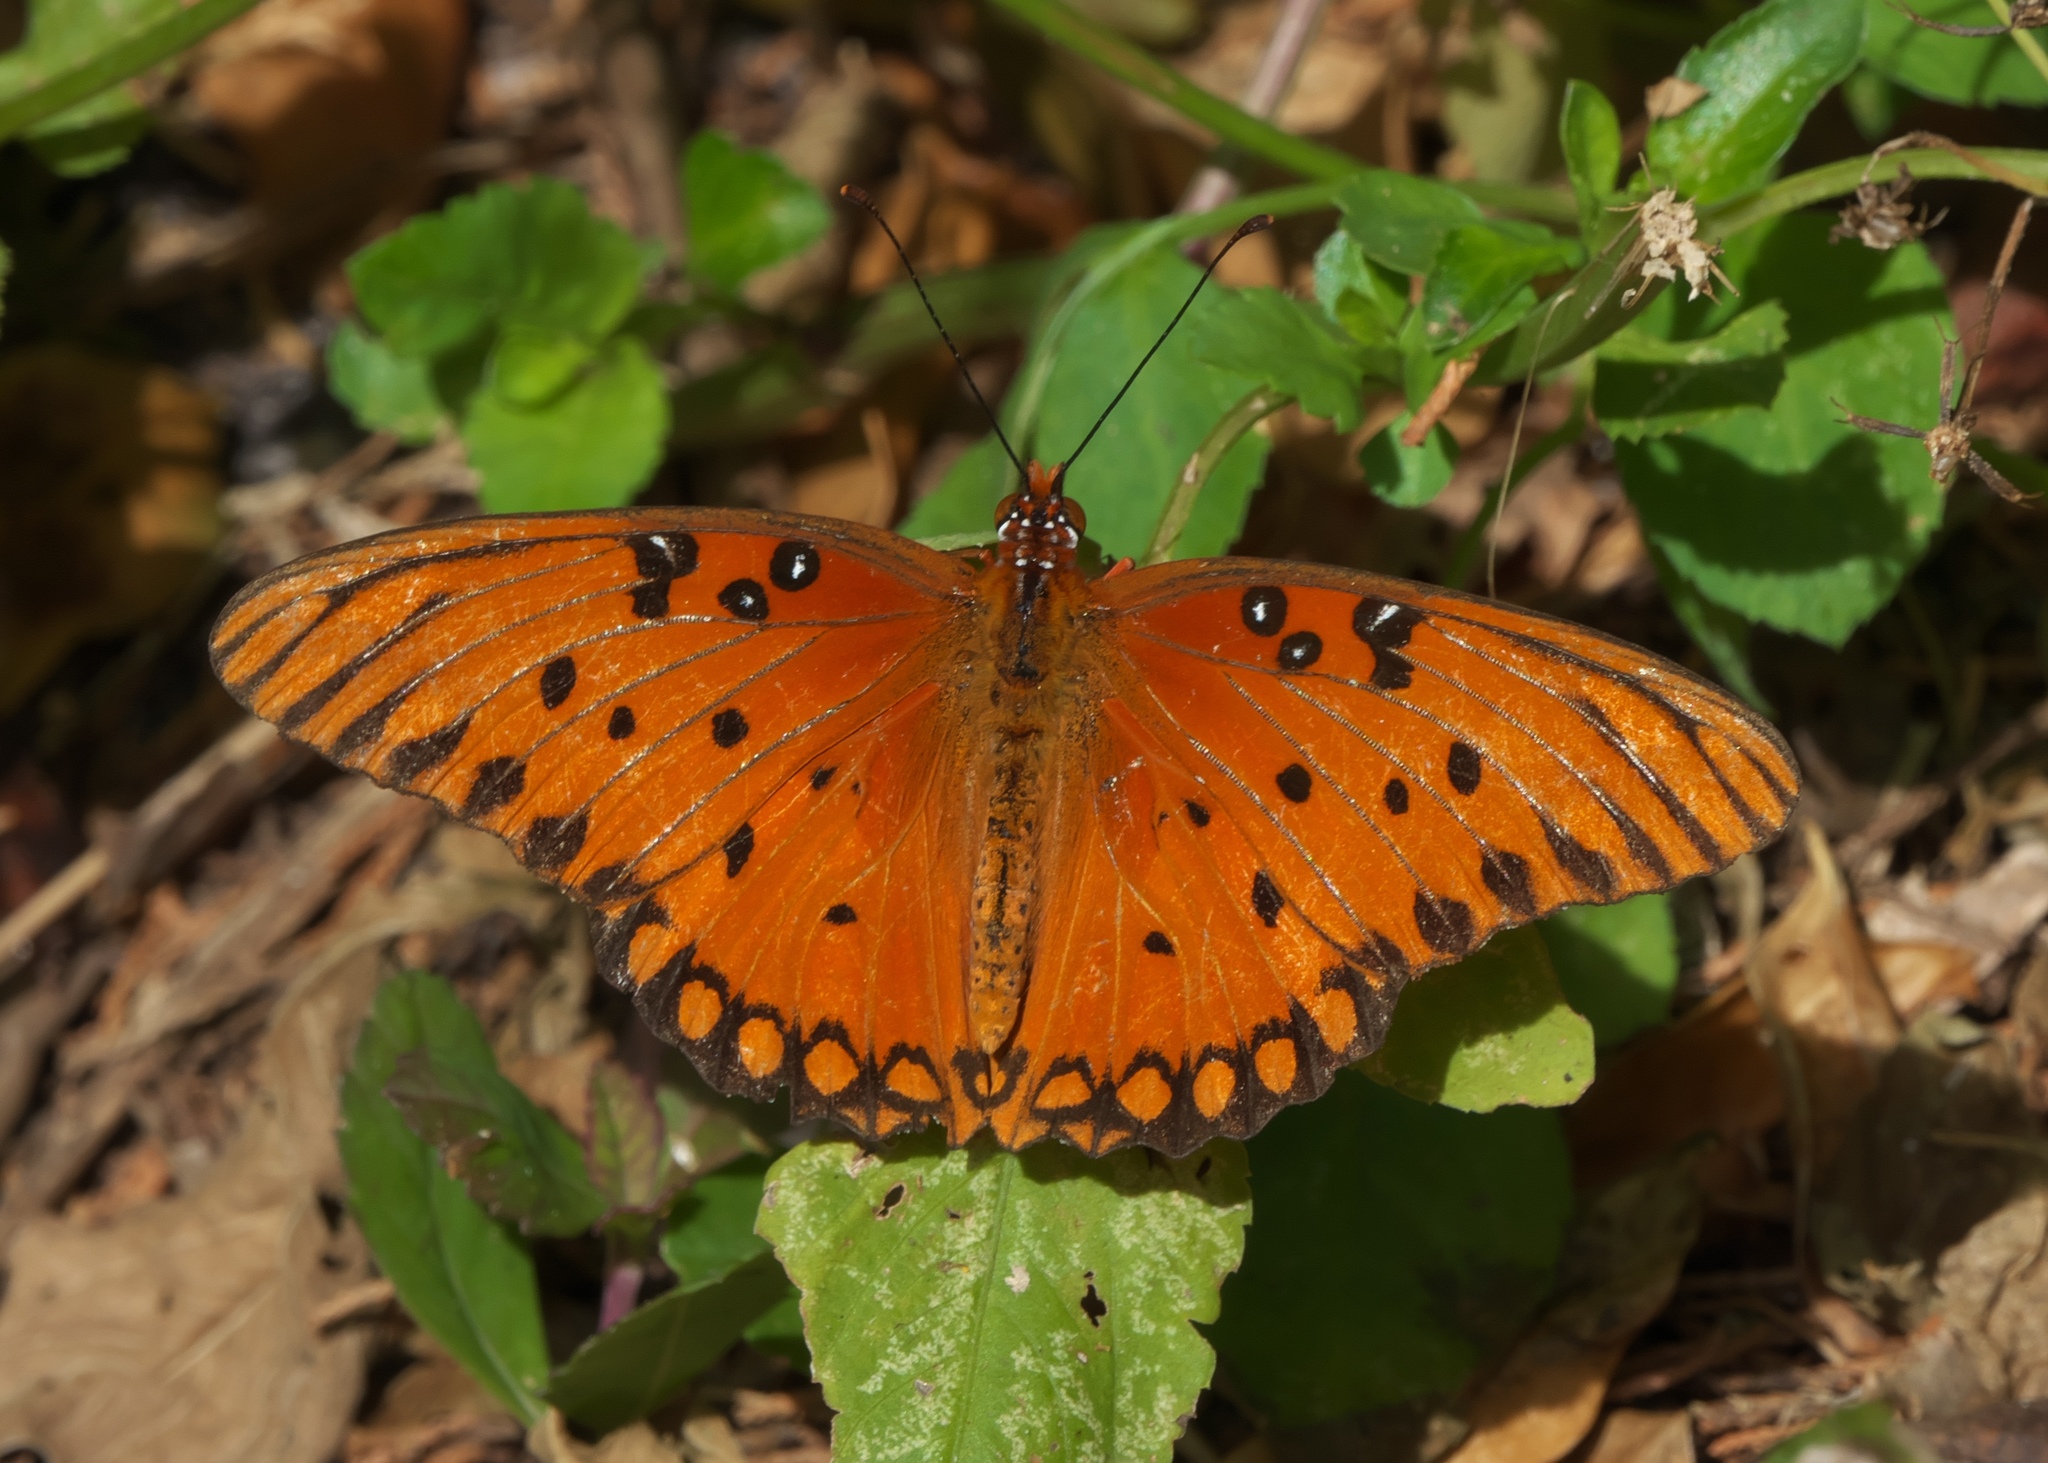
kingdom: Animalia
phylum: Arthropoda
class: Insecta
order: Lepidoptera
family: Nymphalidae
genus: Dione
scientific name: Dione vanillae
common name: Gulf fritillary
